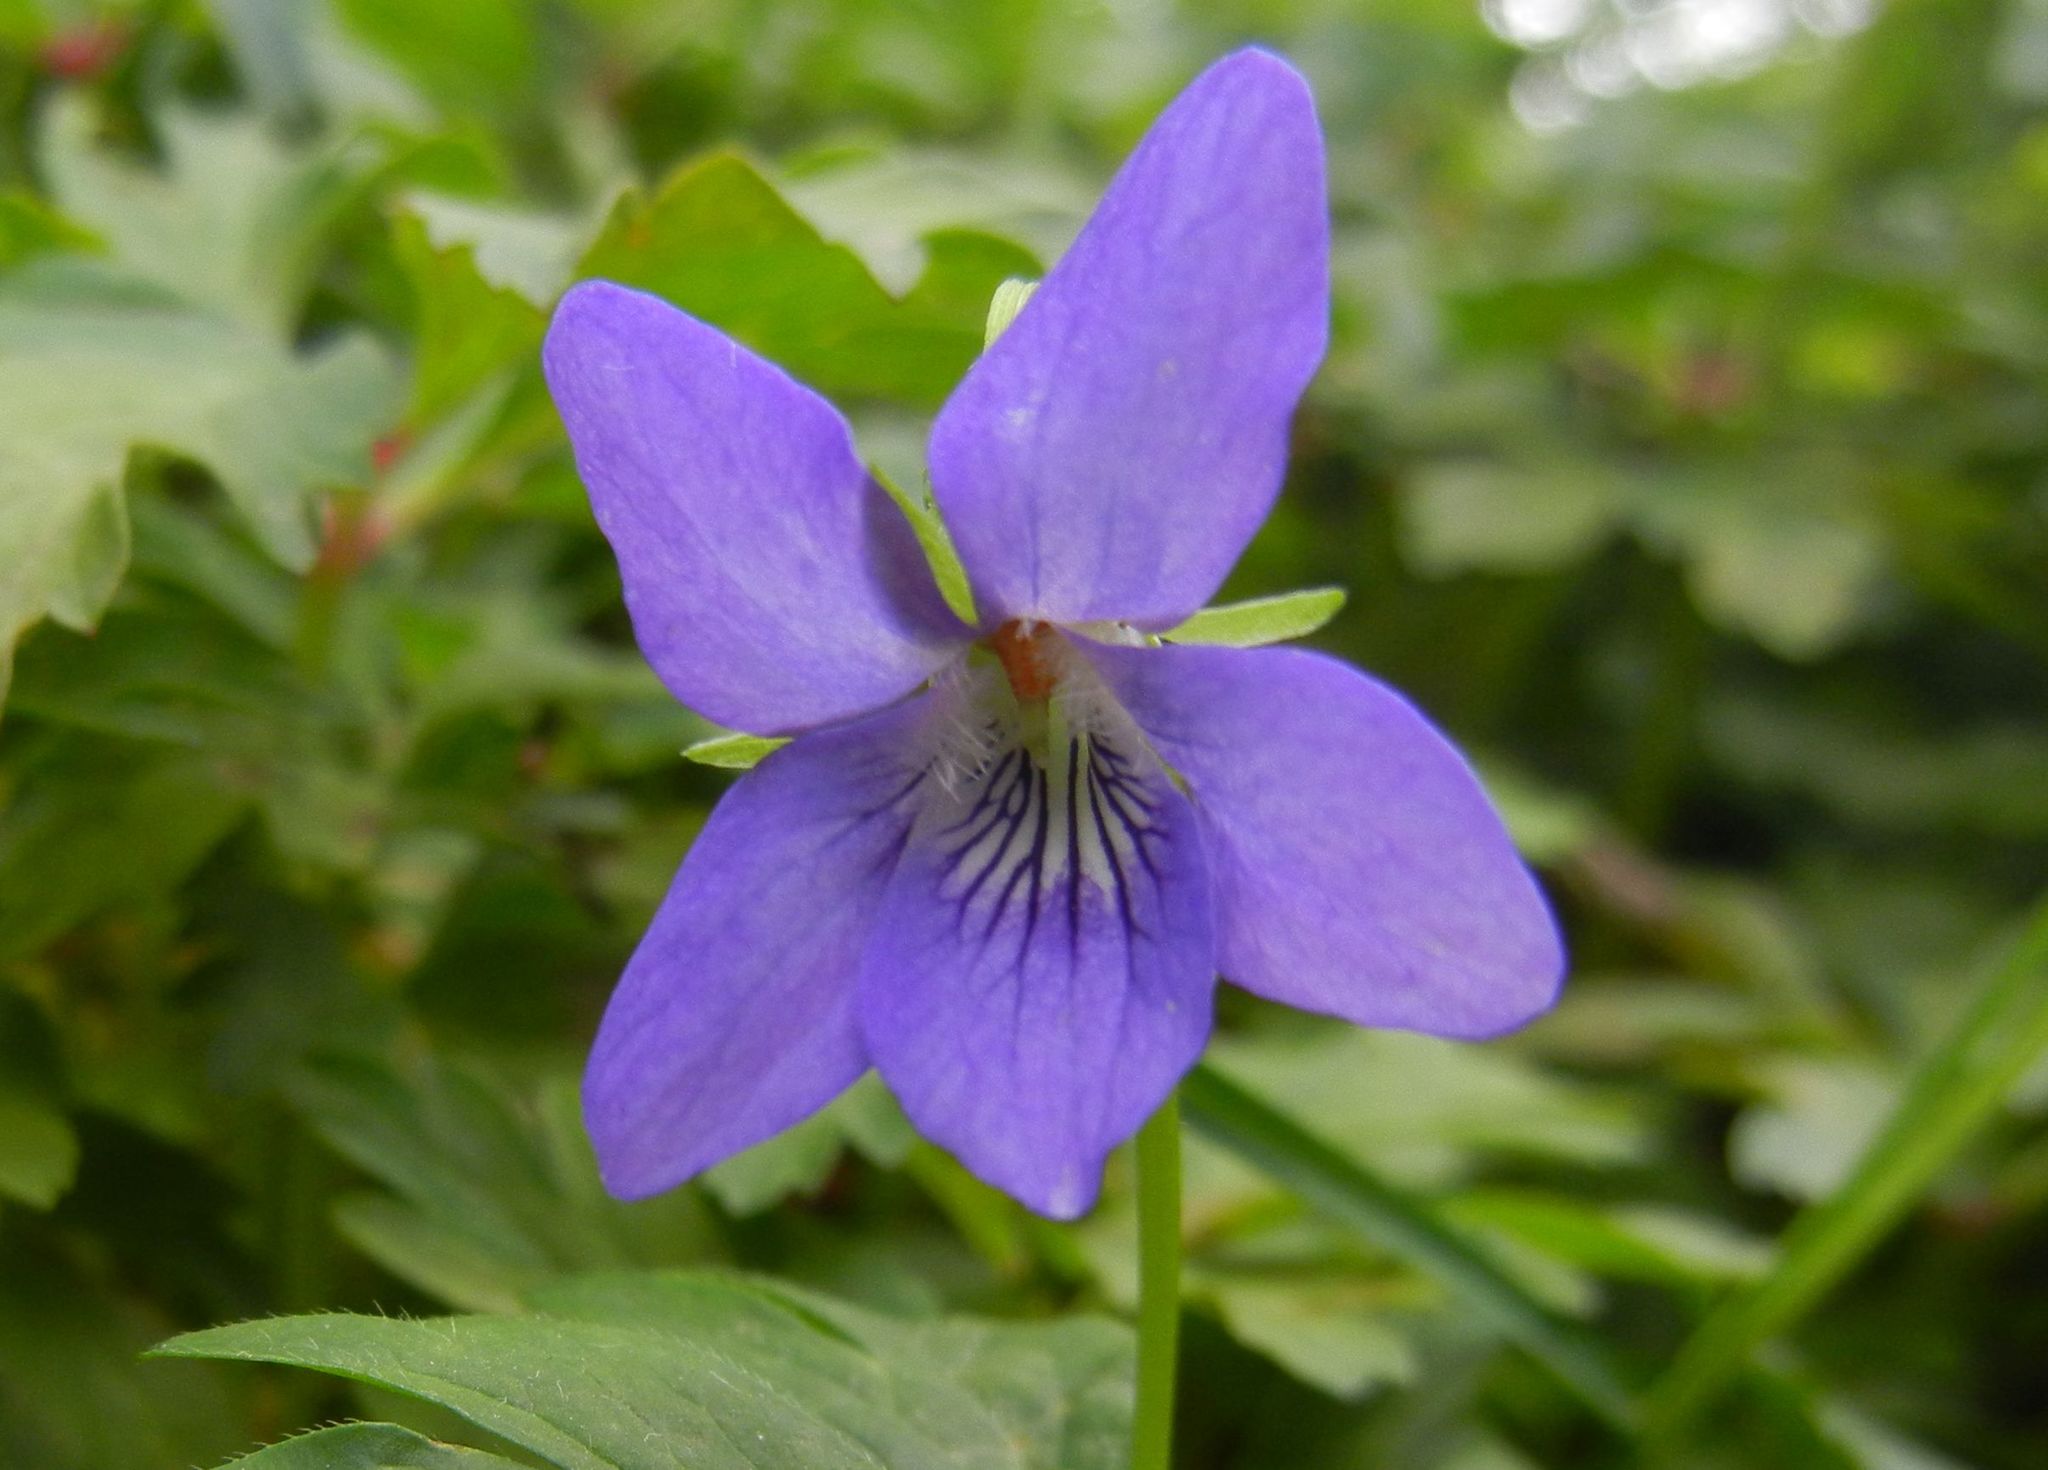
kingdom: Plantae
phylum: Tracheophyta
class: Magnoliopsida
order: Malpighiales
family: Violaceae
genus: Viola
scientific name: Viola riviniana
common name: Common dog-violet
